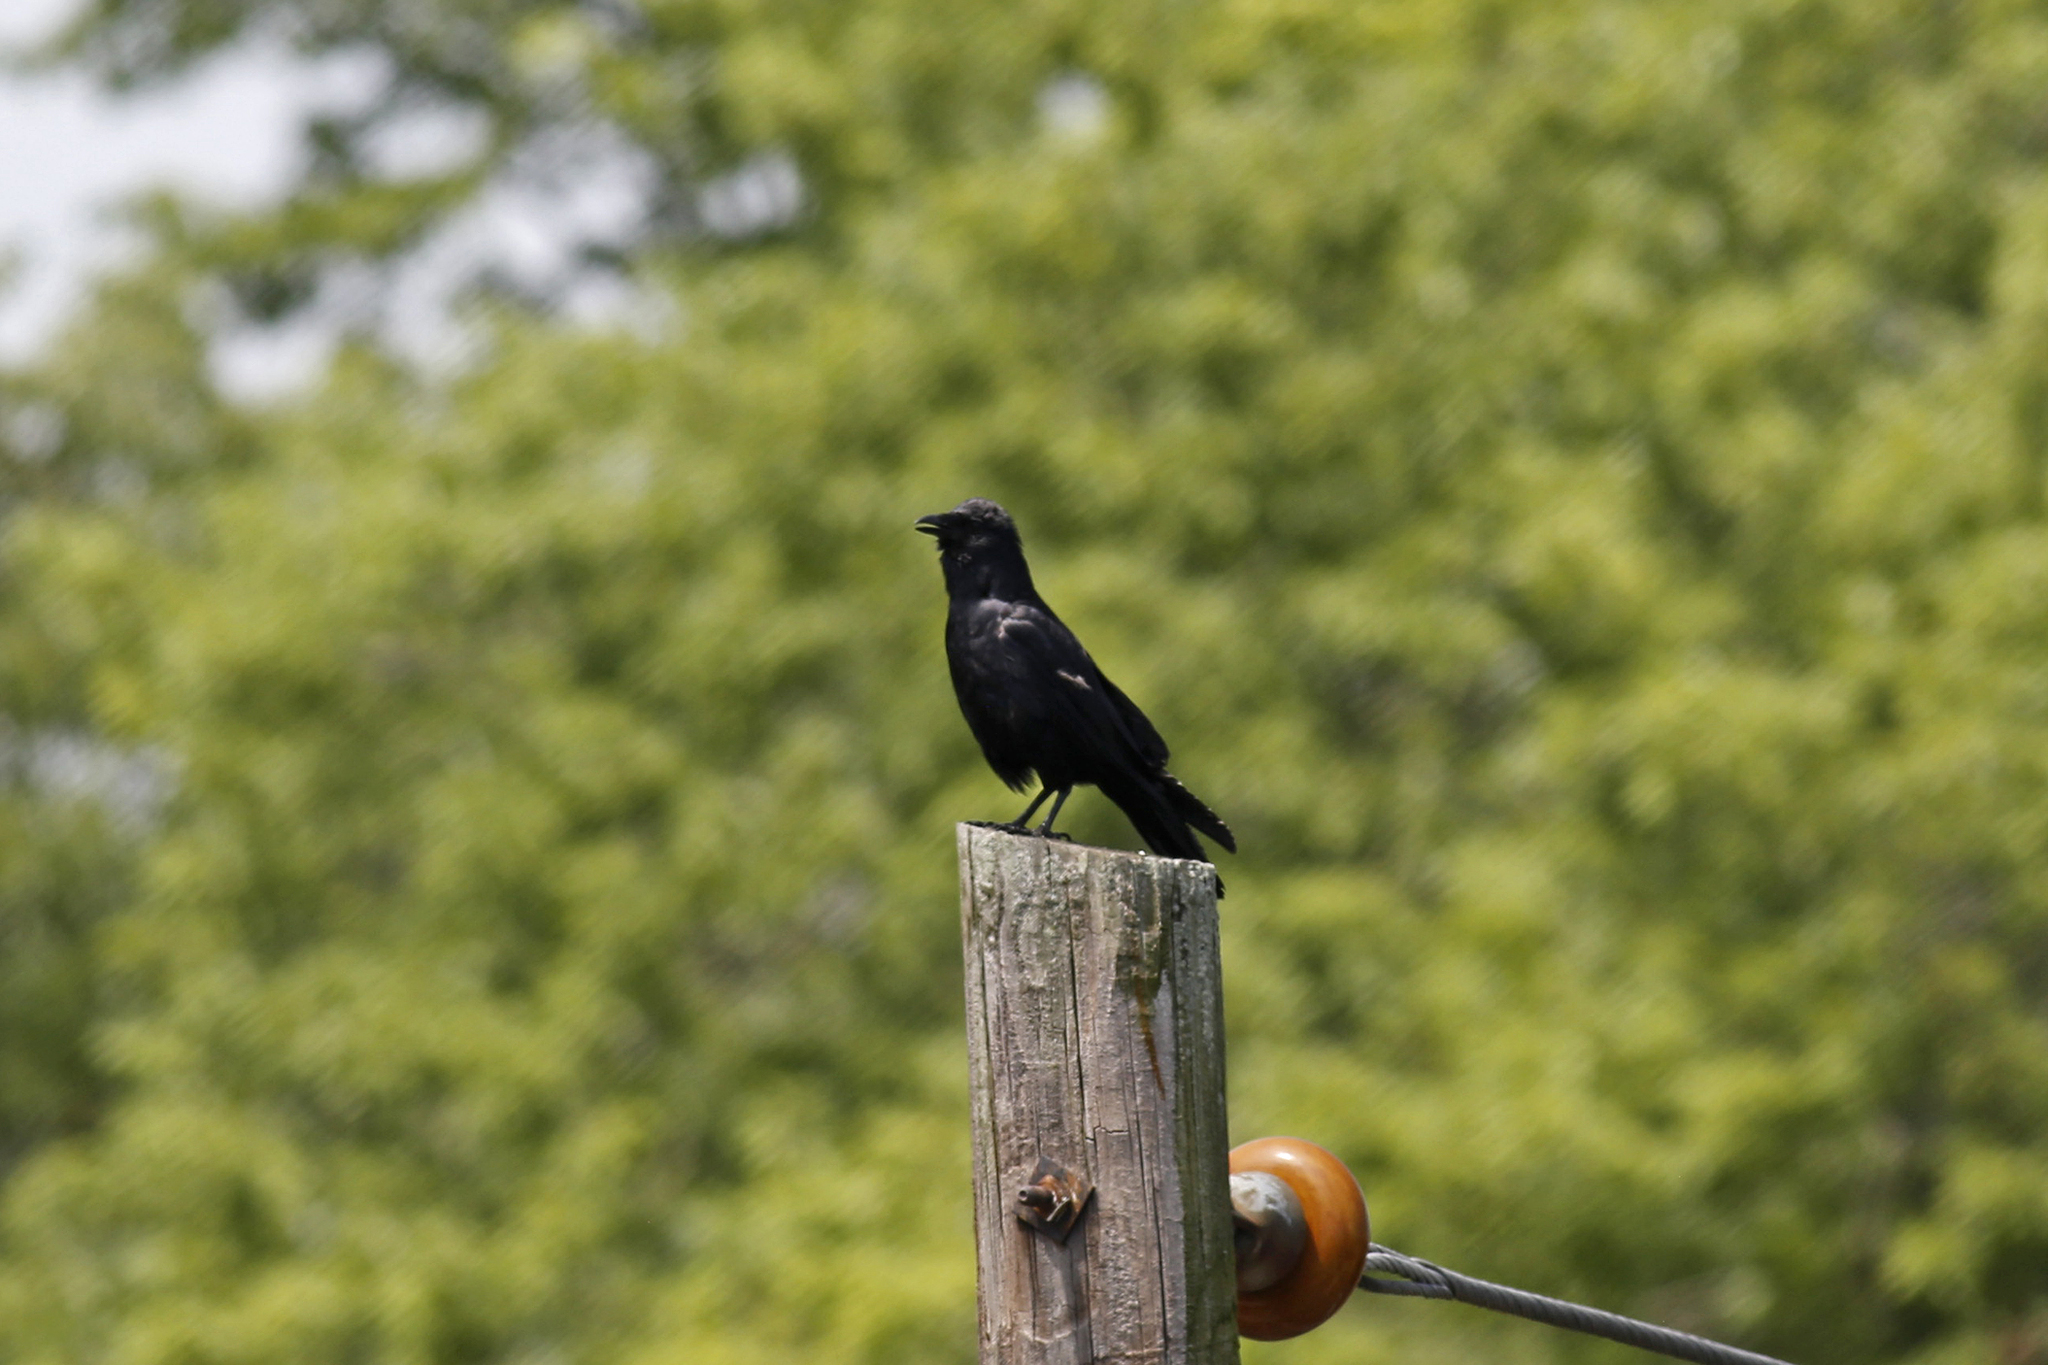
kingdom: Animalia
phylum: Chordata
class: Aves
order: Passeriformes
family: Corvidae
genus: Corvus
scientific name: Corvus ossifragus
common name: Fish crow
